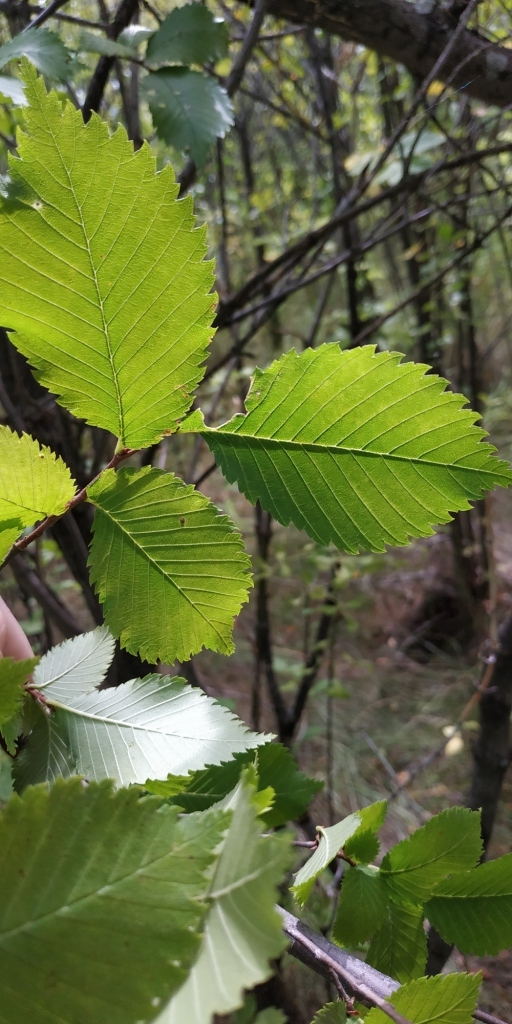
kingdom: Plantae
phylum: Tracheophyta
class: Magnoliopsida
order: Rosales
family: Ulmaceae
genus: Ulmus
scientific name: Ulmus laevis
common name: European white-elm
